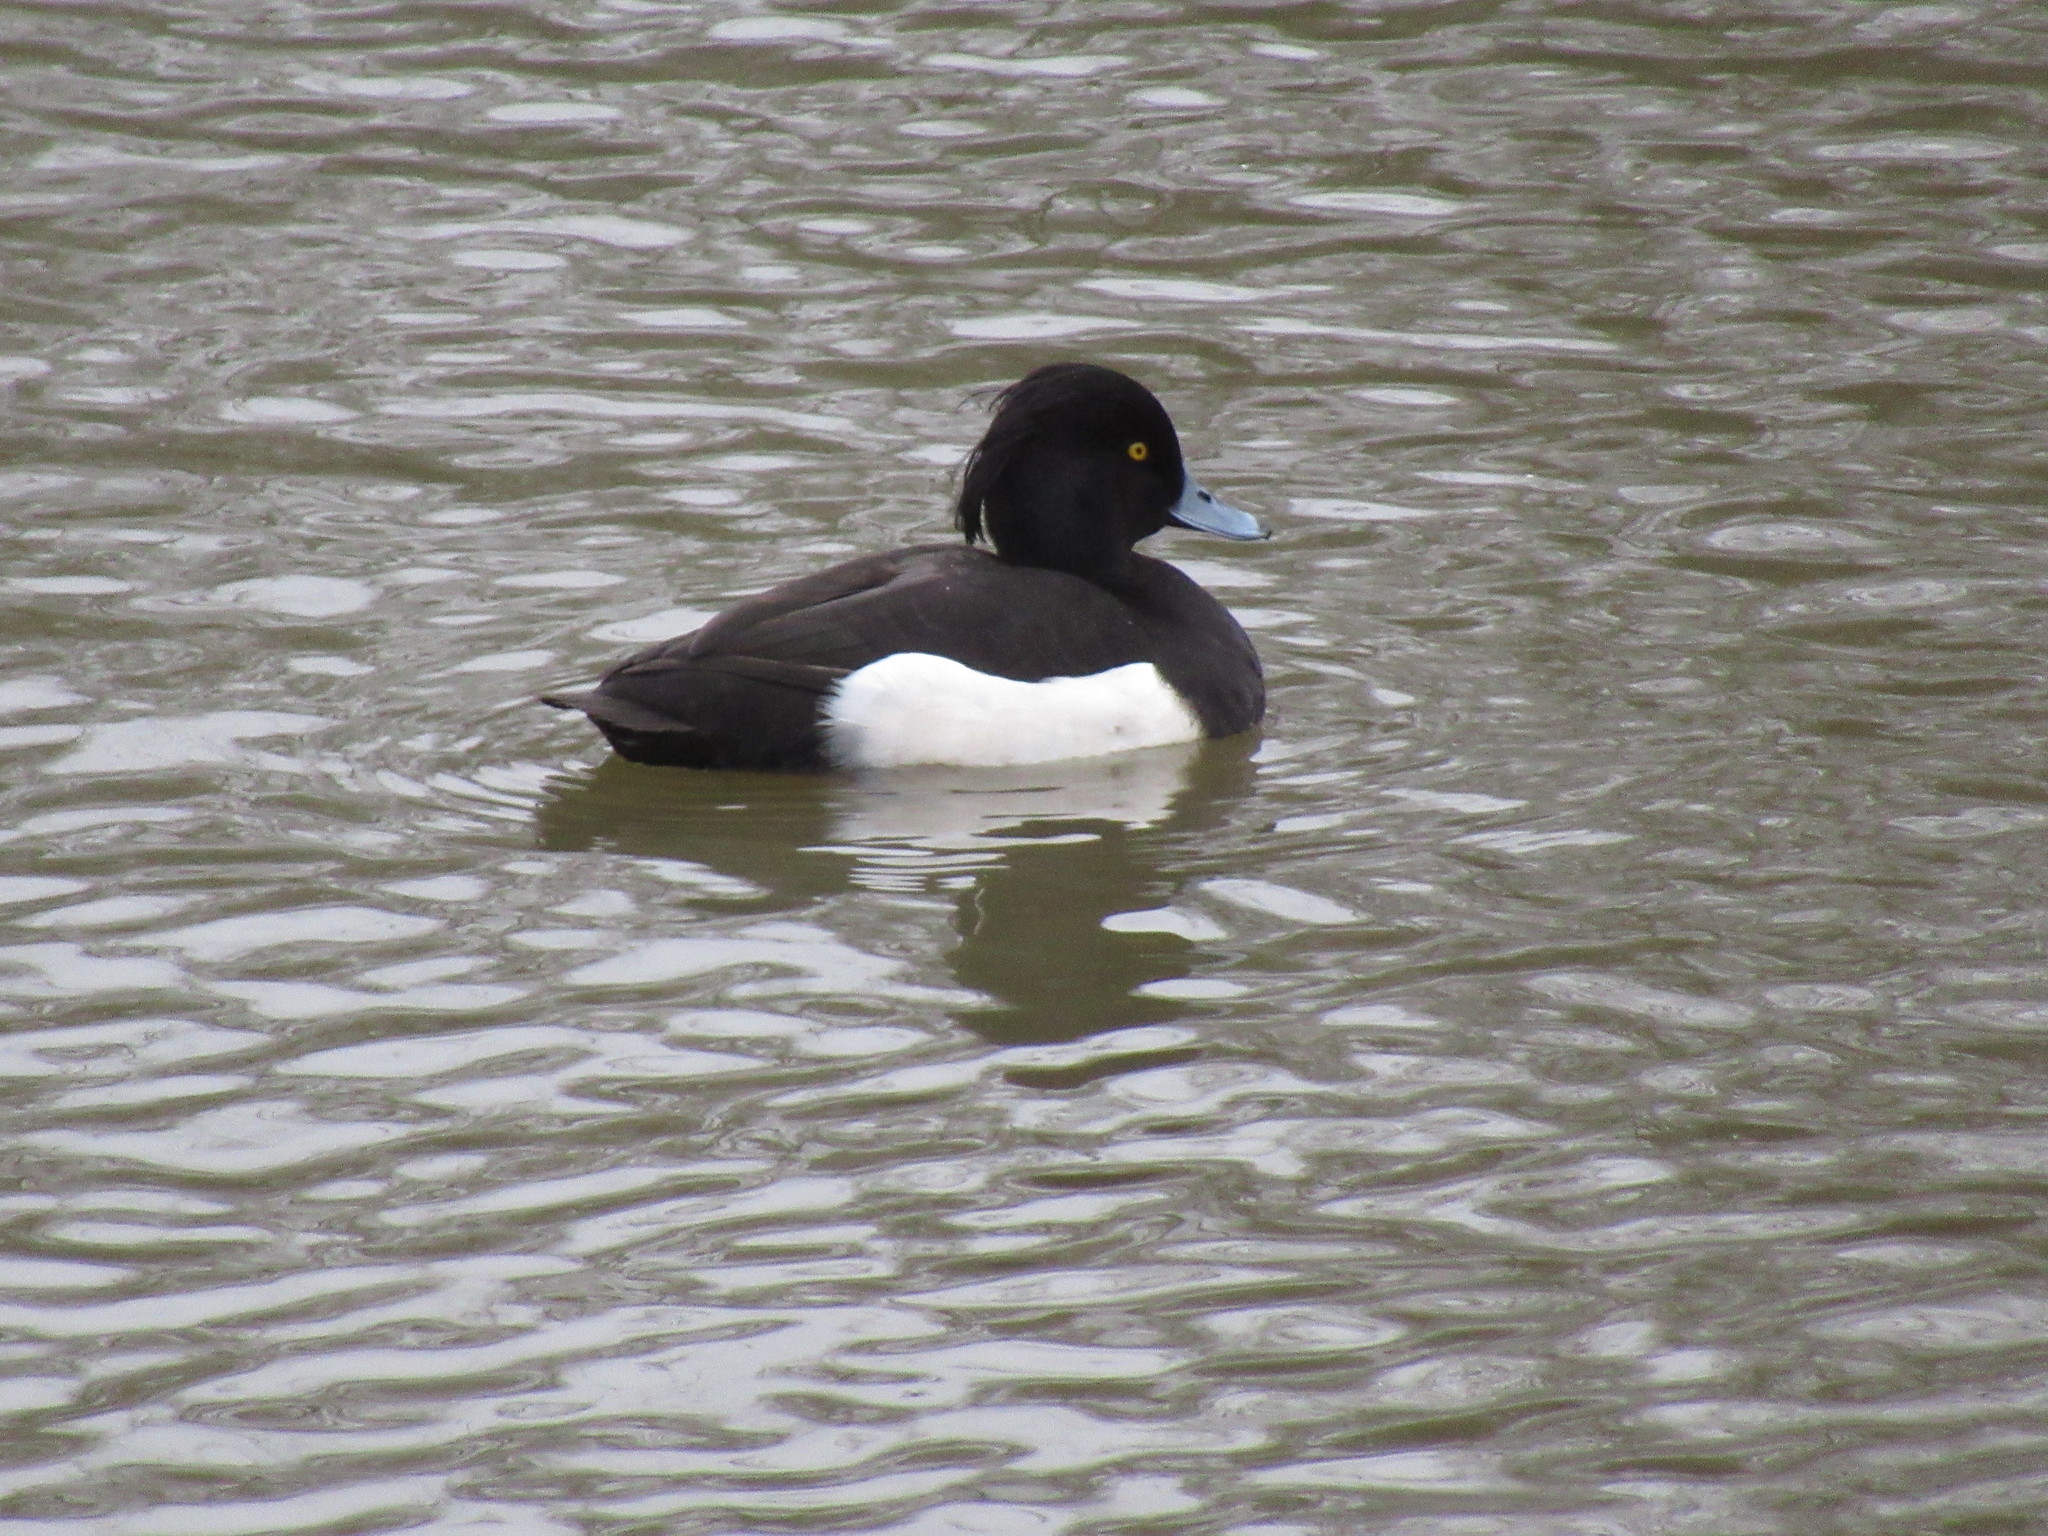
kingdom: Animalia
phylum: Chordata
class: Aves
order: Anseriformes
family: Anatidae
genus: Aythya
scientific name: Aythya fuligula
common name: Tufted duck
